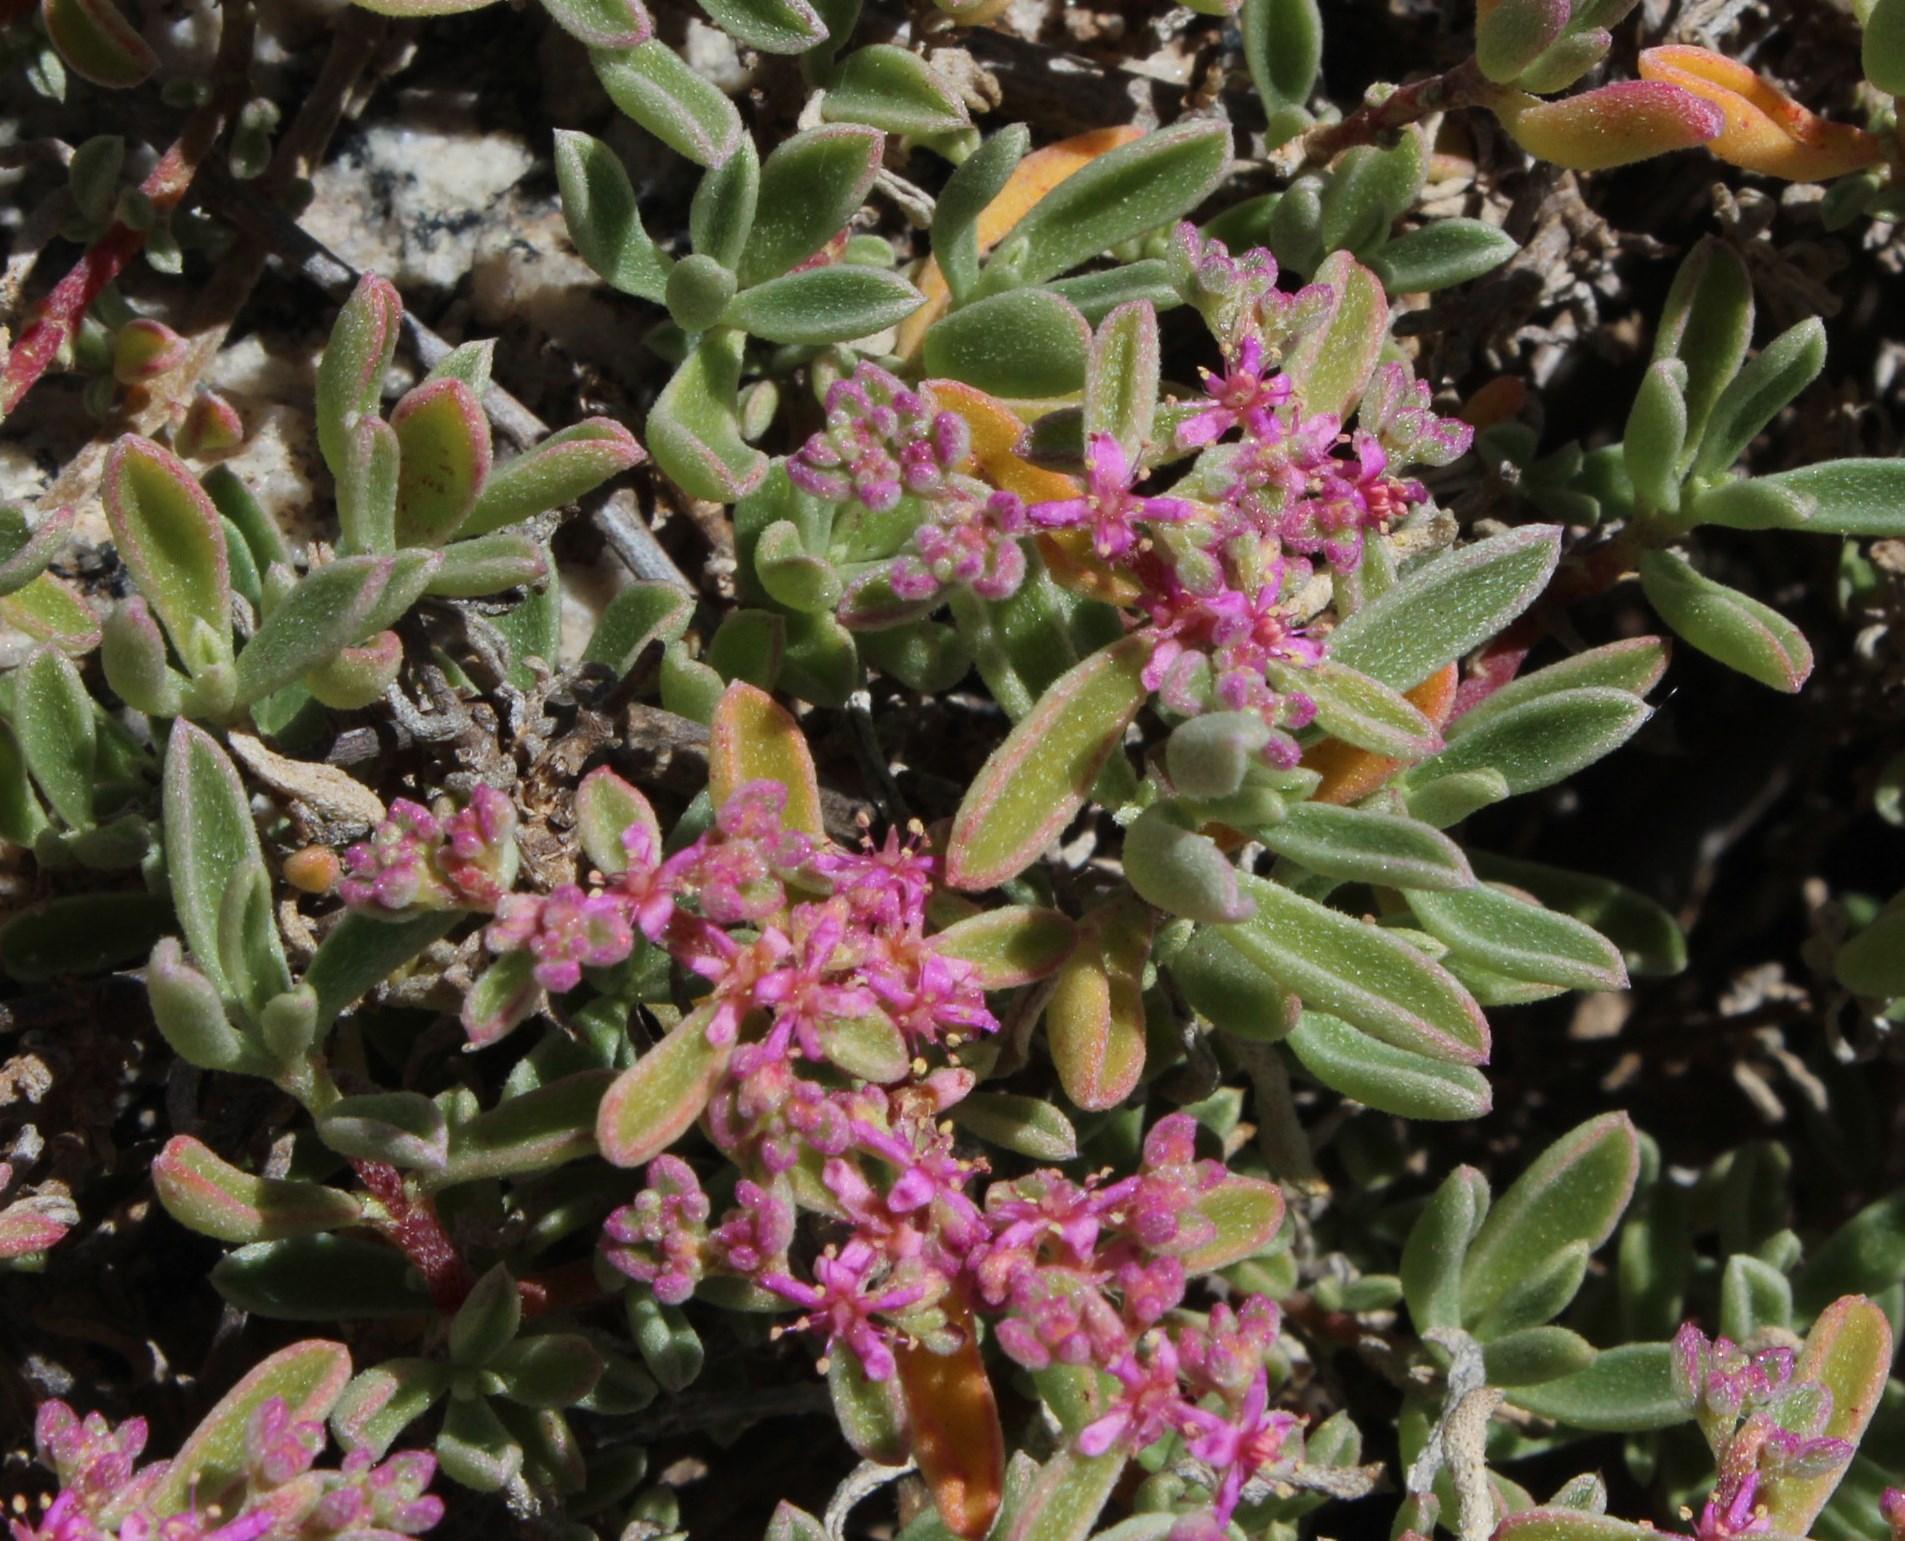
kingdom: Plantae
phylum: Tracheophyta
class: Magnoliopsida
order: Caryophyllales
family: Aizoaceae
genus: Aizoon
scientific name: Aizoon sarcophyllum
